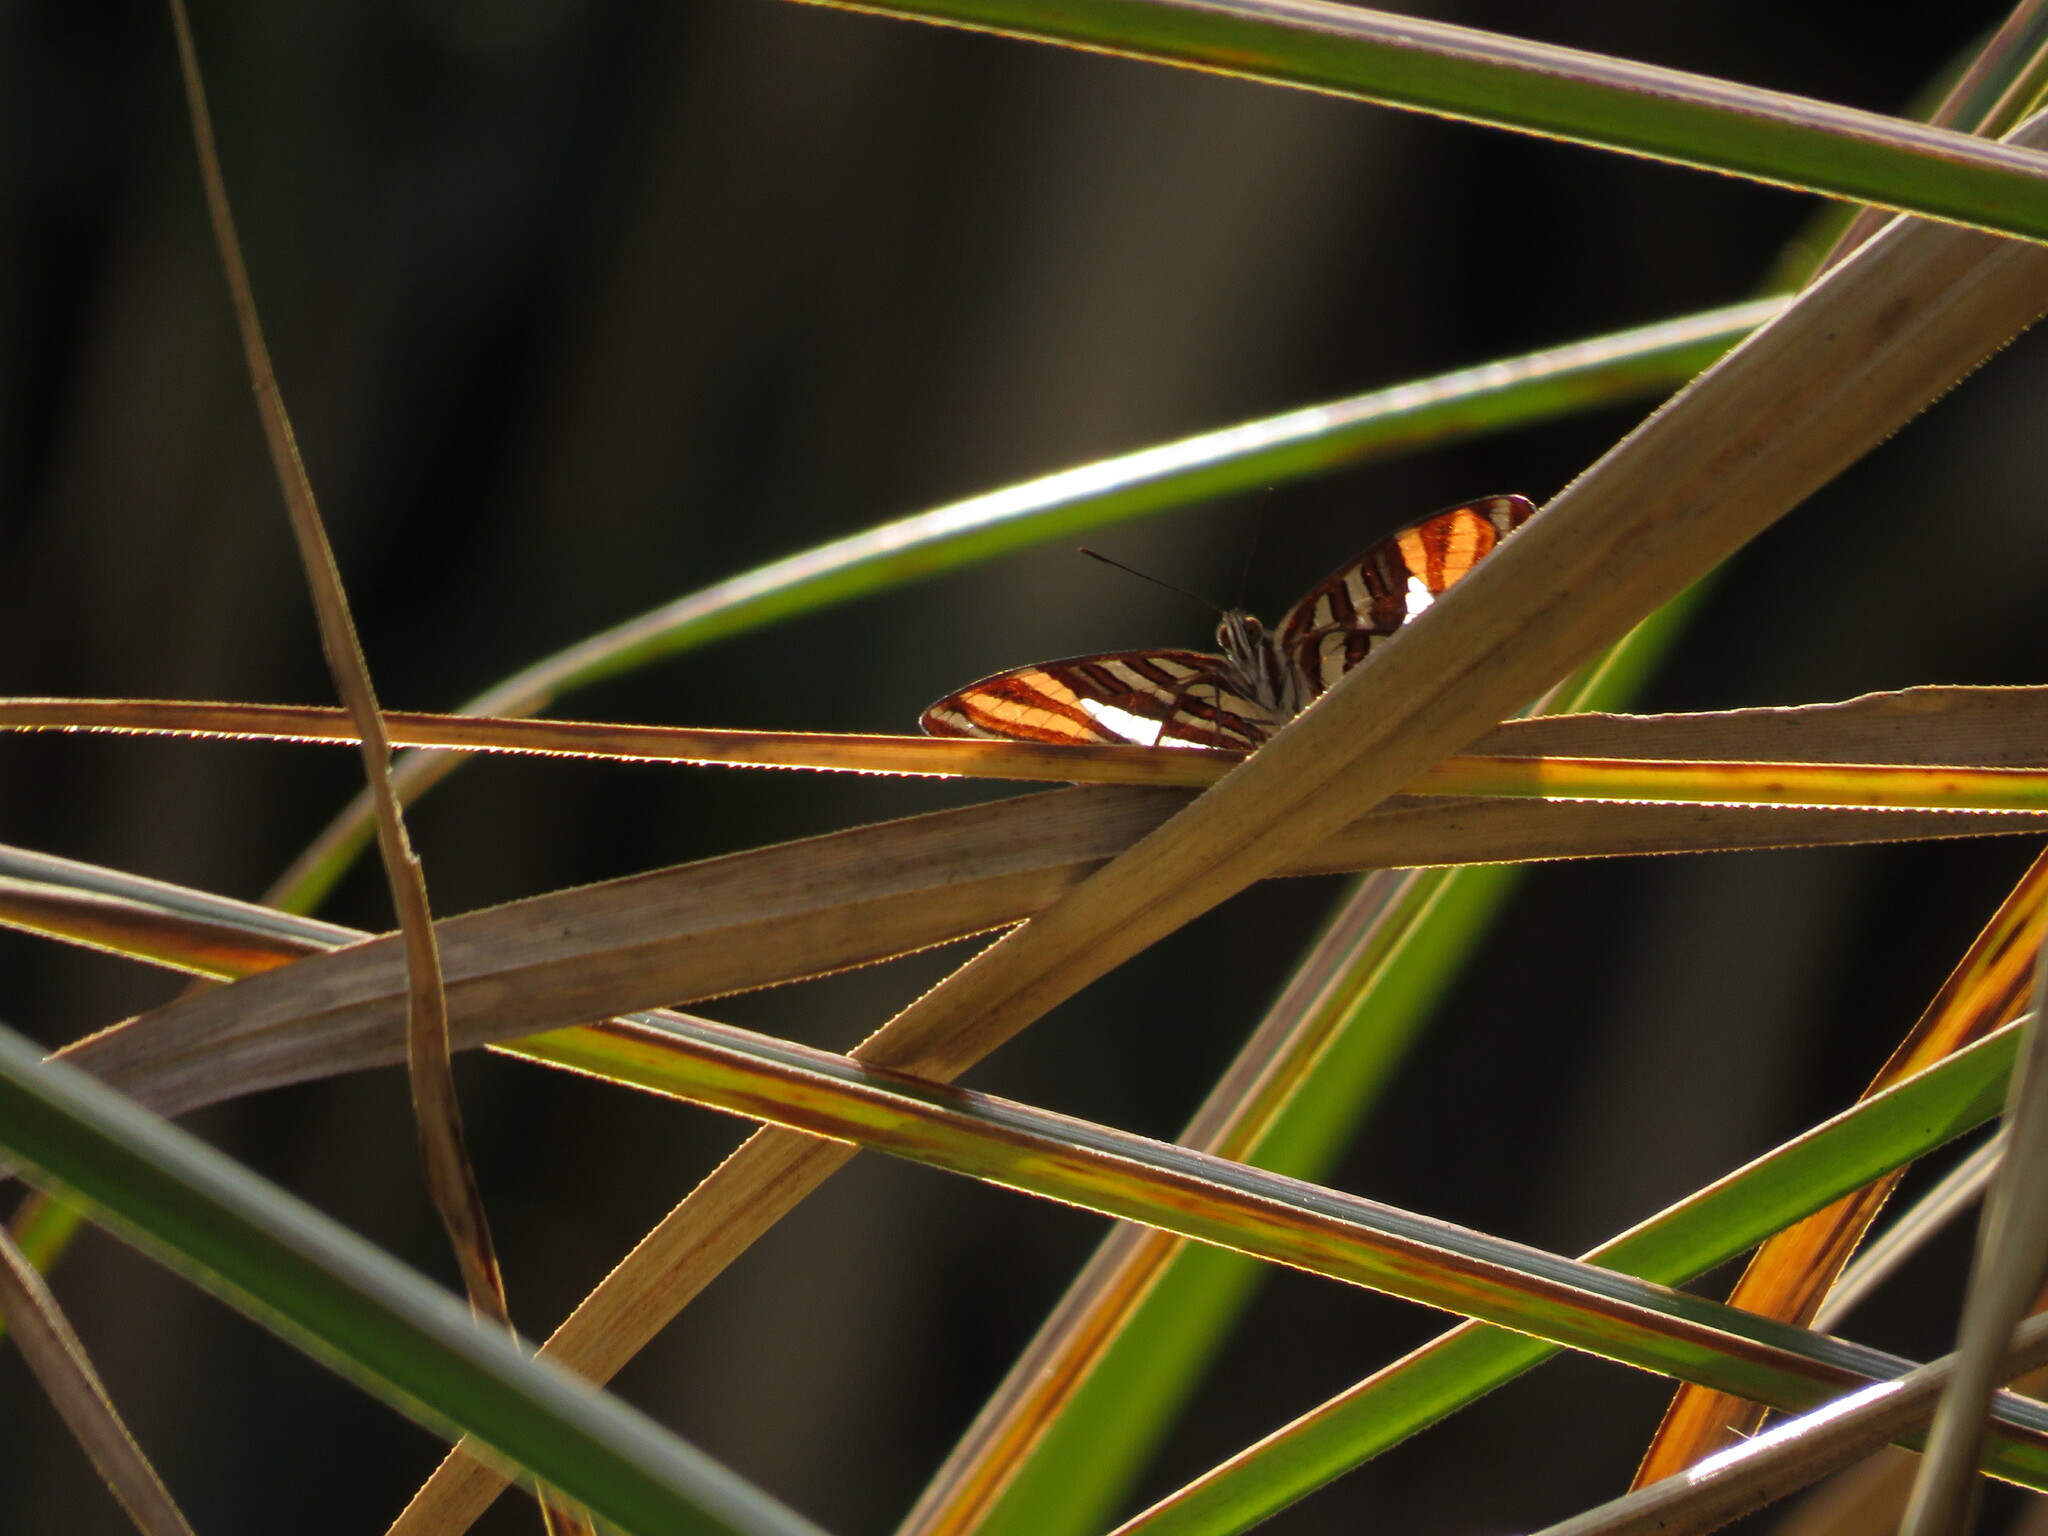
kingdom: Animalia
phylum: Arthropoda
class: Insecta
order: Lepidoptera
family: Nymphalidae
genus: Limenitis
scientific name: Limenitis syma
